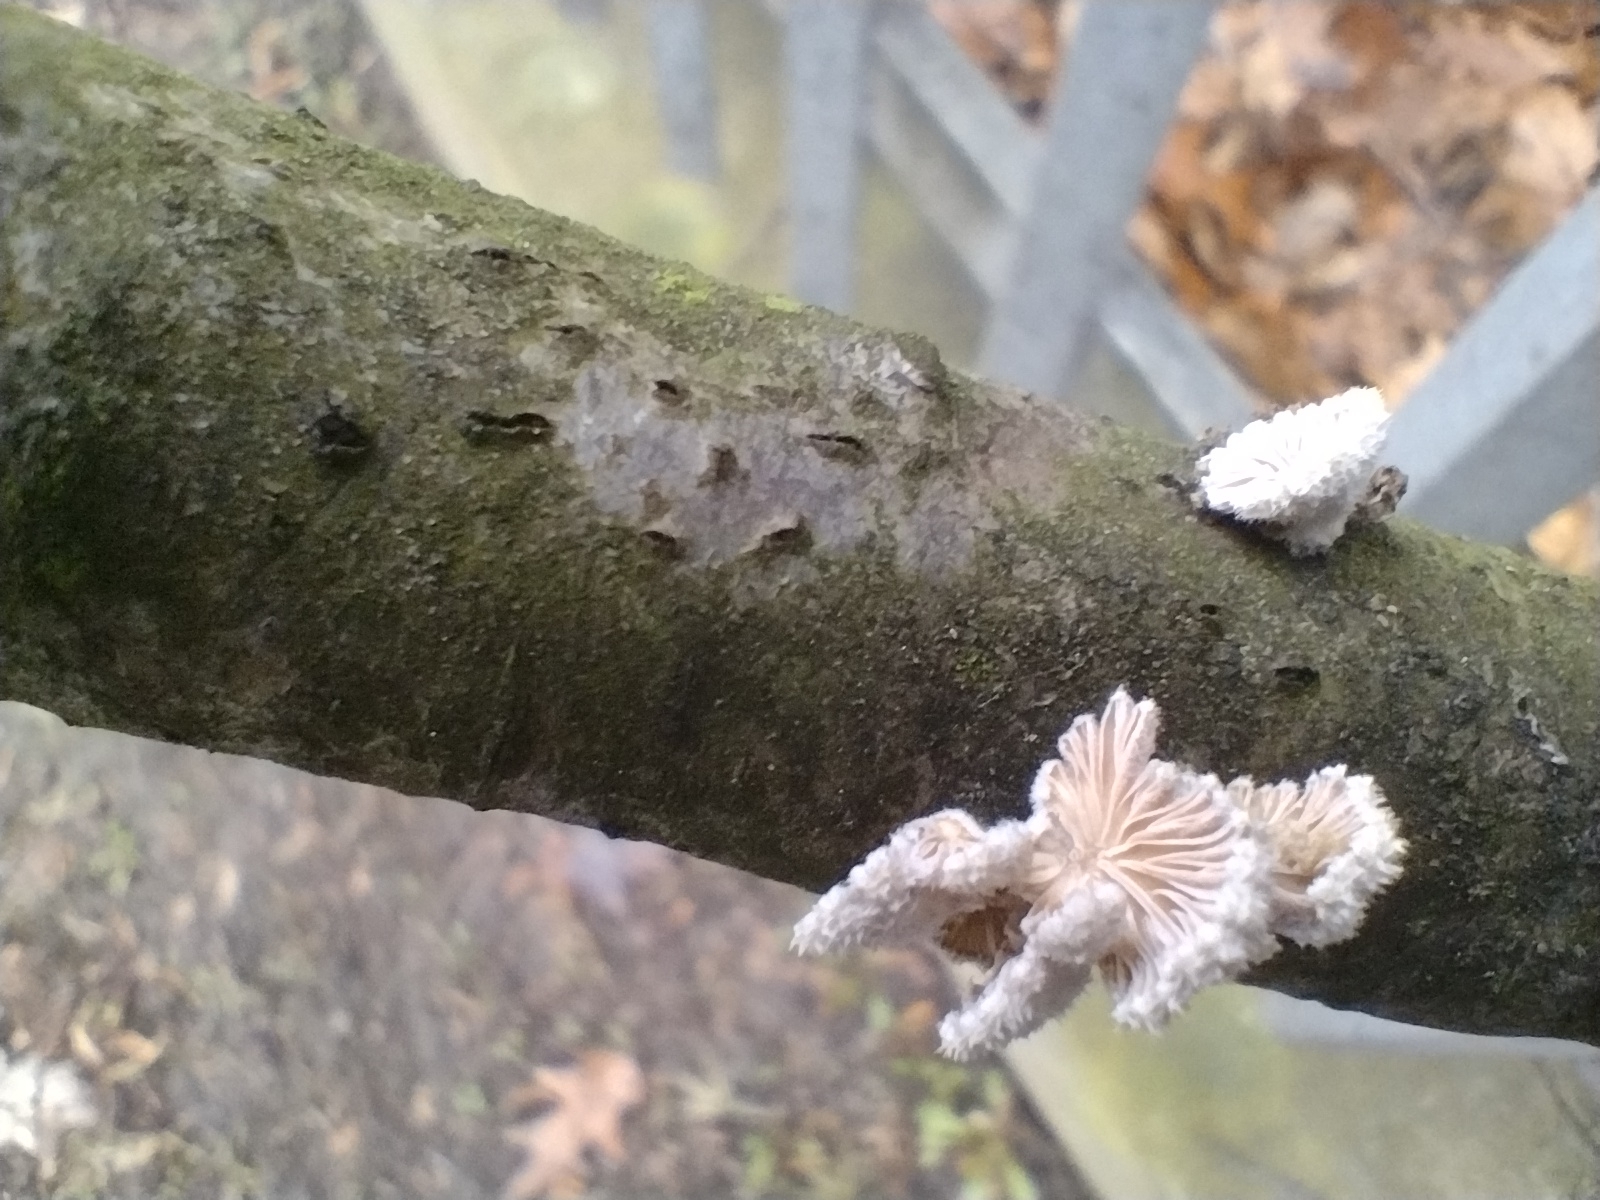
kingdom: Fungi
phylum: Basidiomycota
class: Agaricomycetes
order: Agaricales
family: Schizophyllaceae
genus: Schizophyllum
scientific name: Schizophyllum commune
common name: Common porecrust
